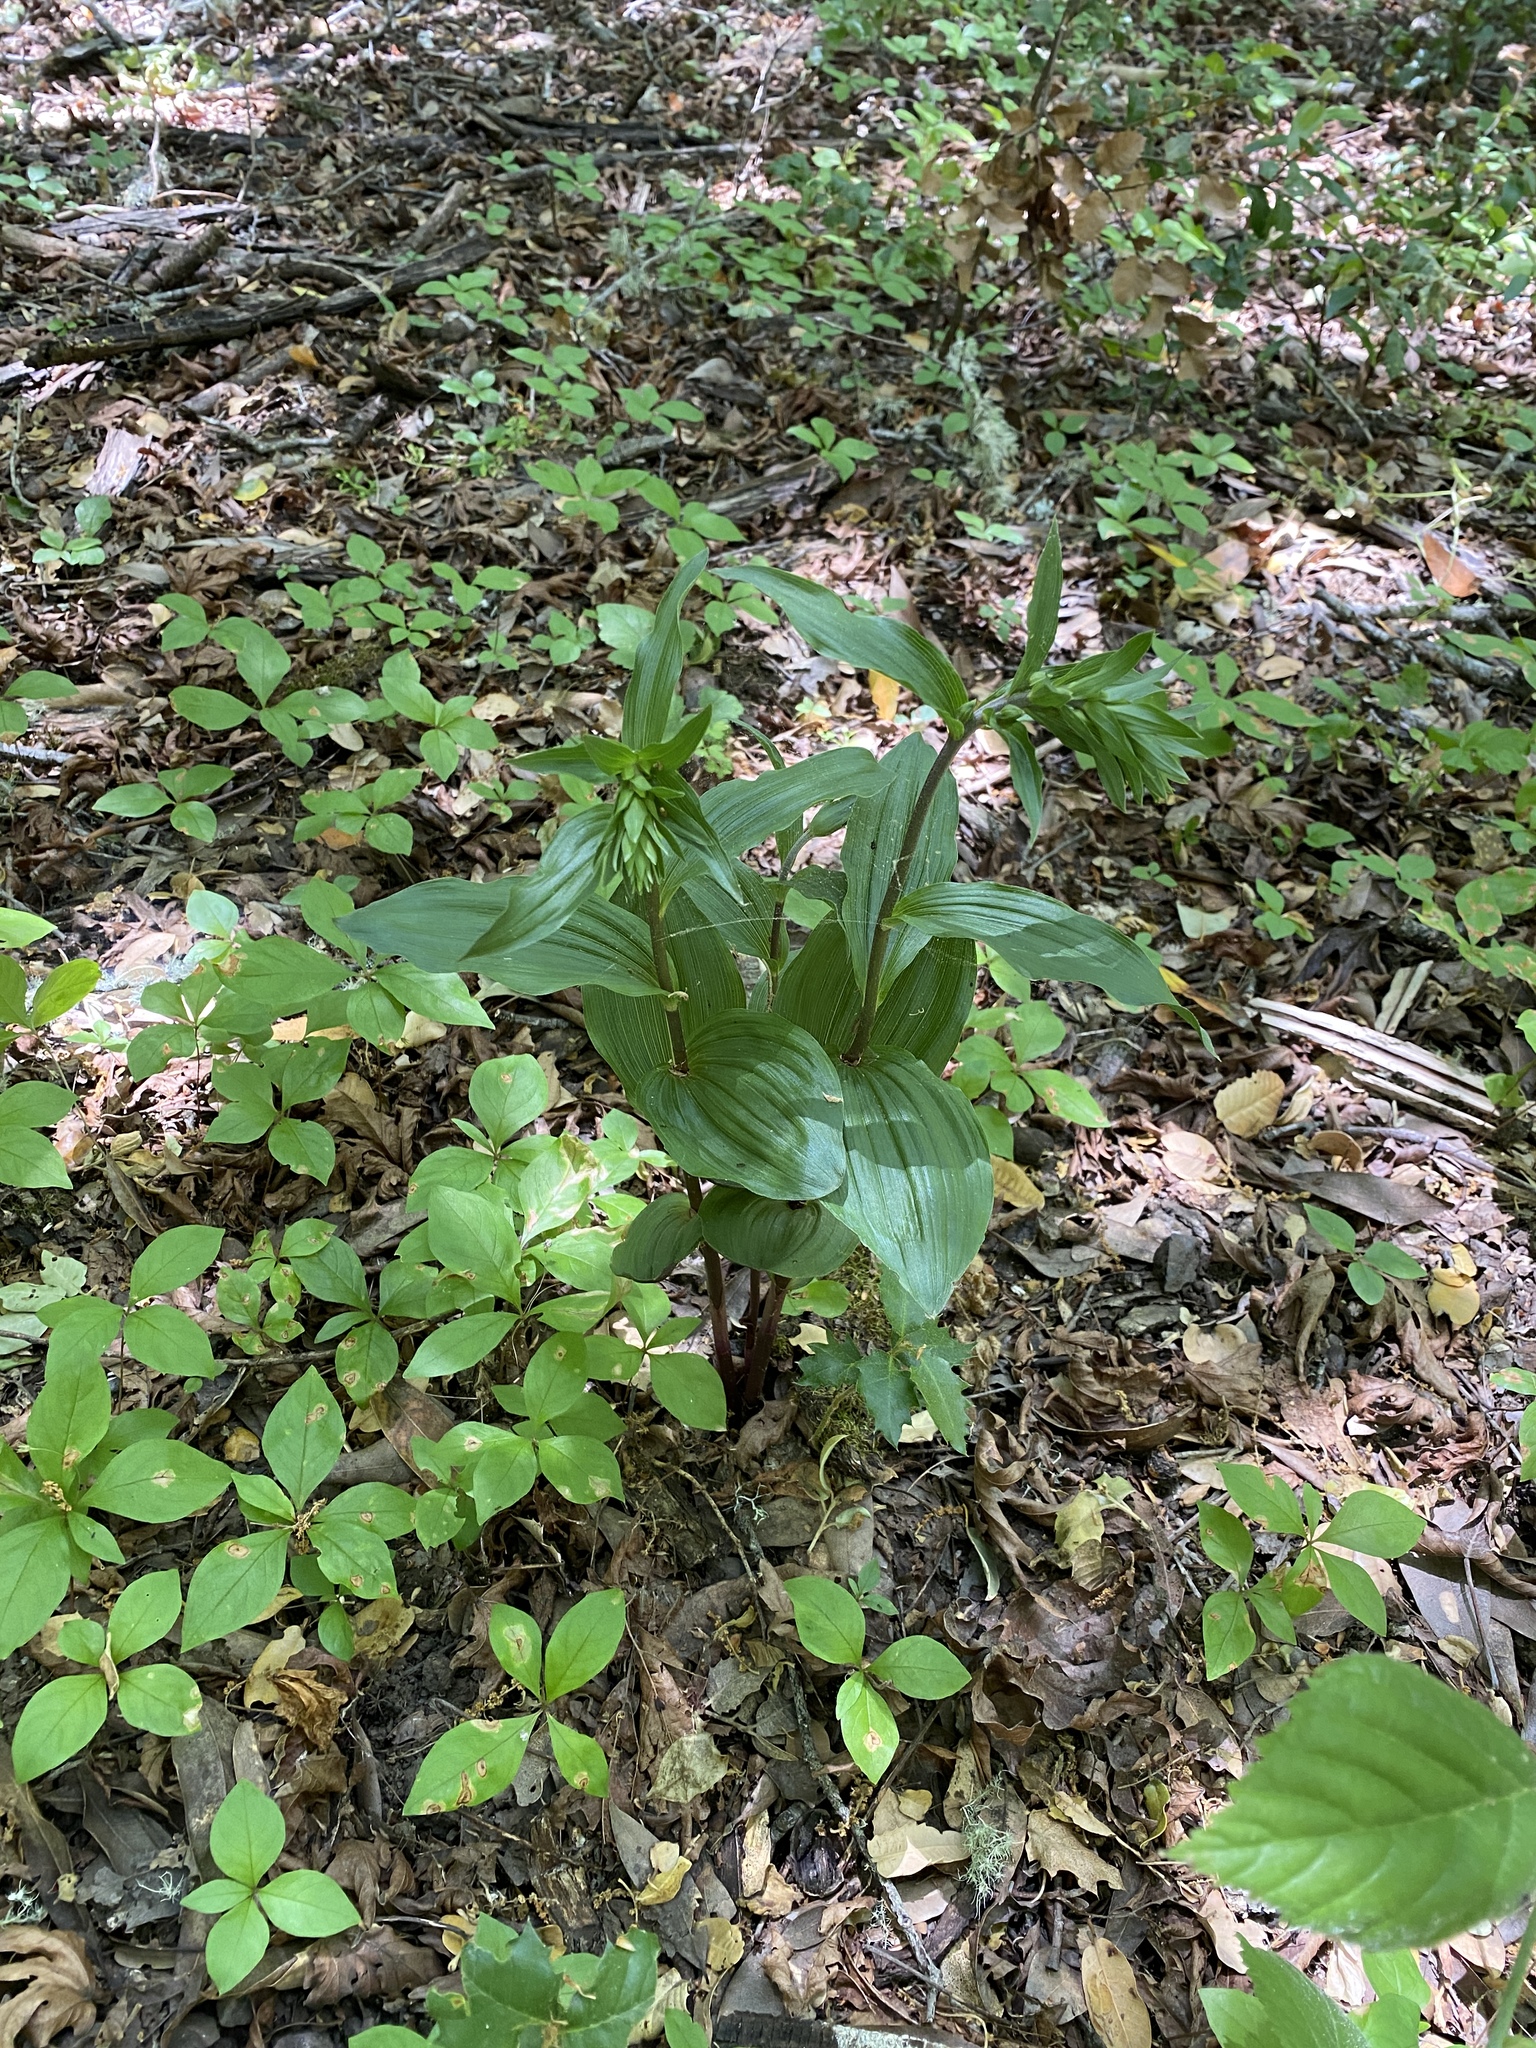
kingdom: Plantae
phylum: Tracheophyta
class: Liliopsida
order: Asparagales
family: Orchidaceae
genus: Epipactis
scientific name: Epipactis helleborine
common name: Broad-leaved helleborine
